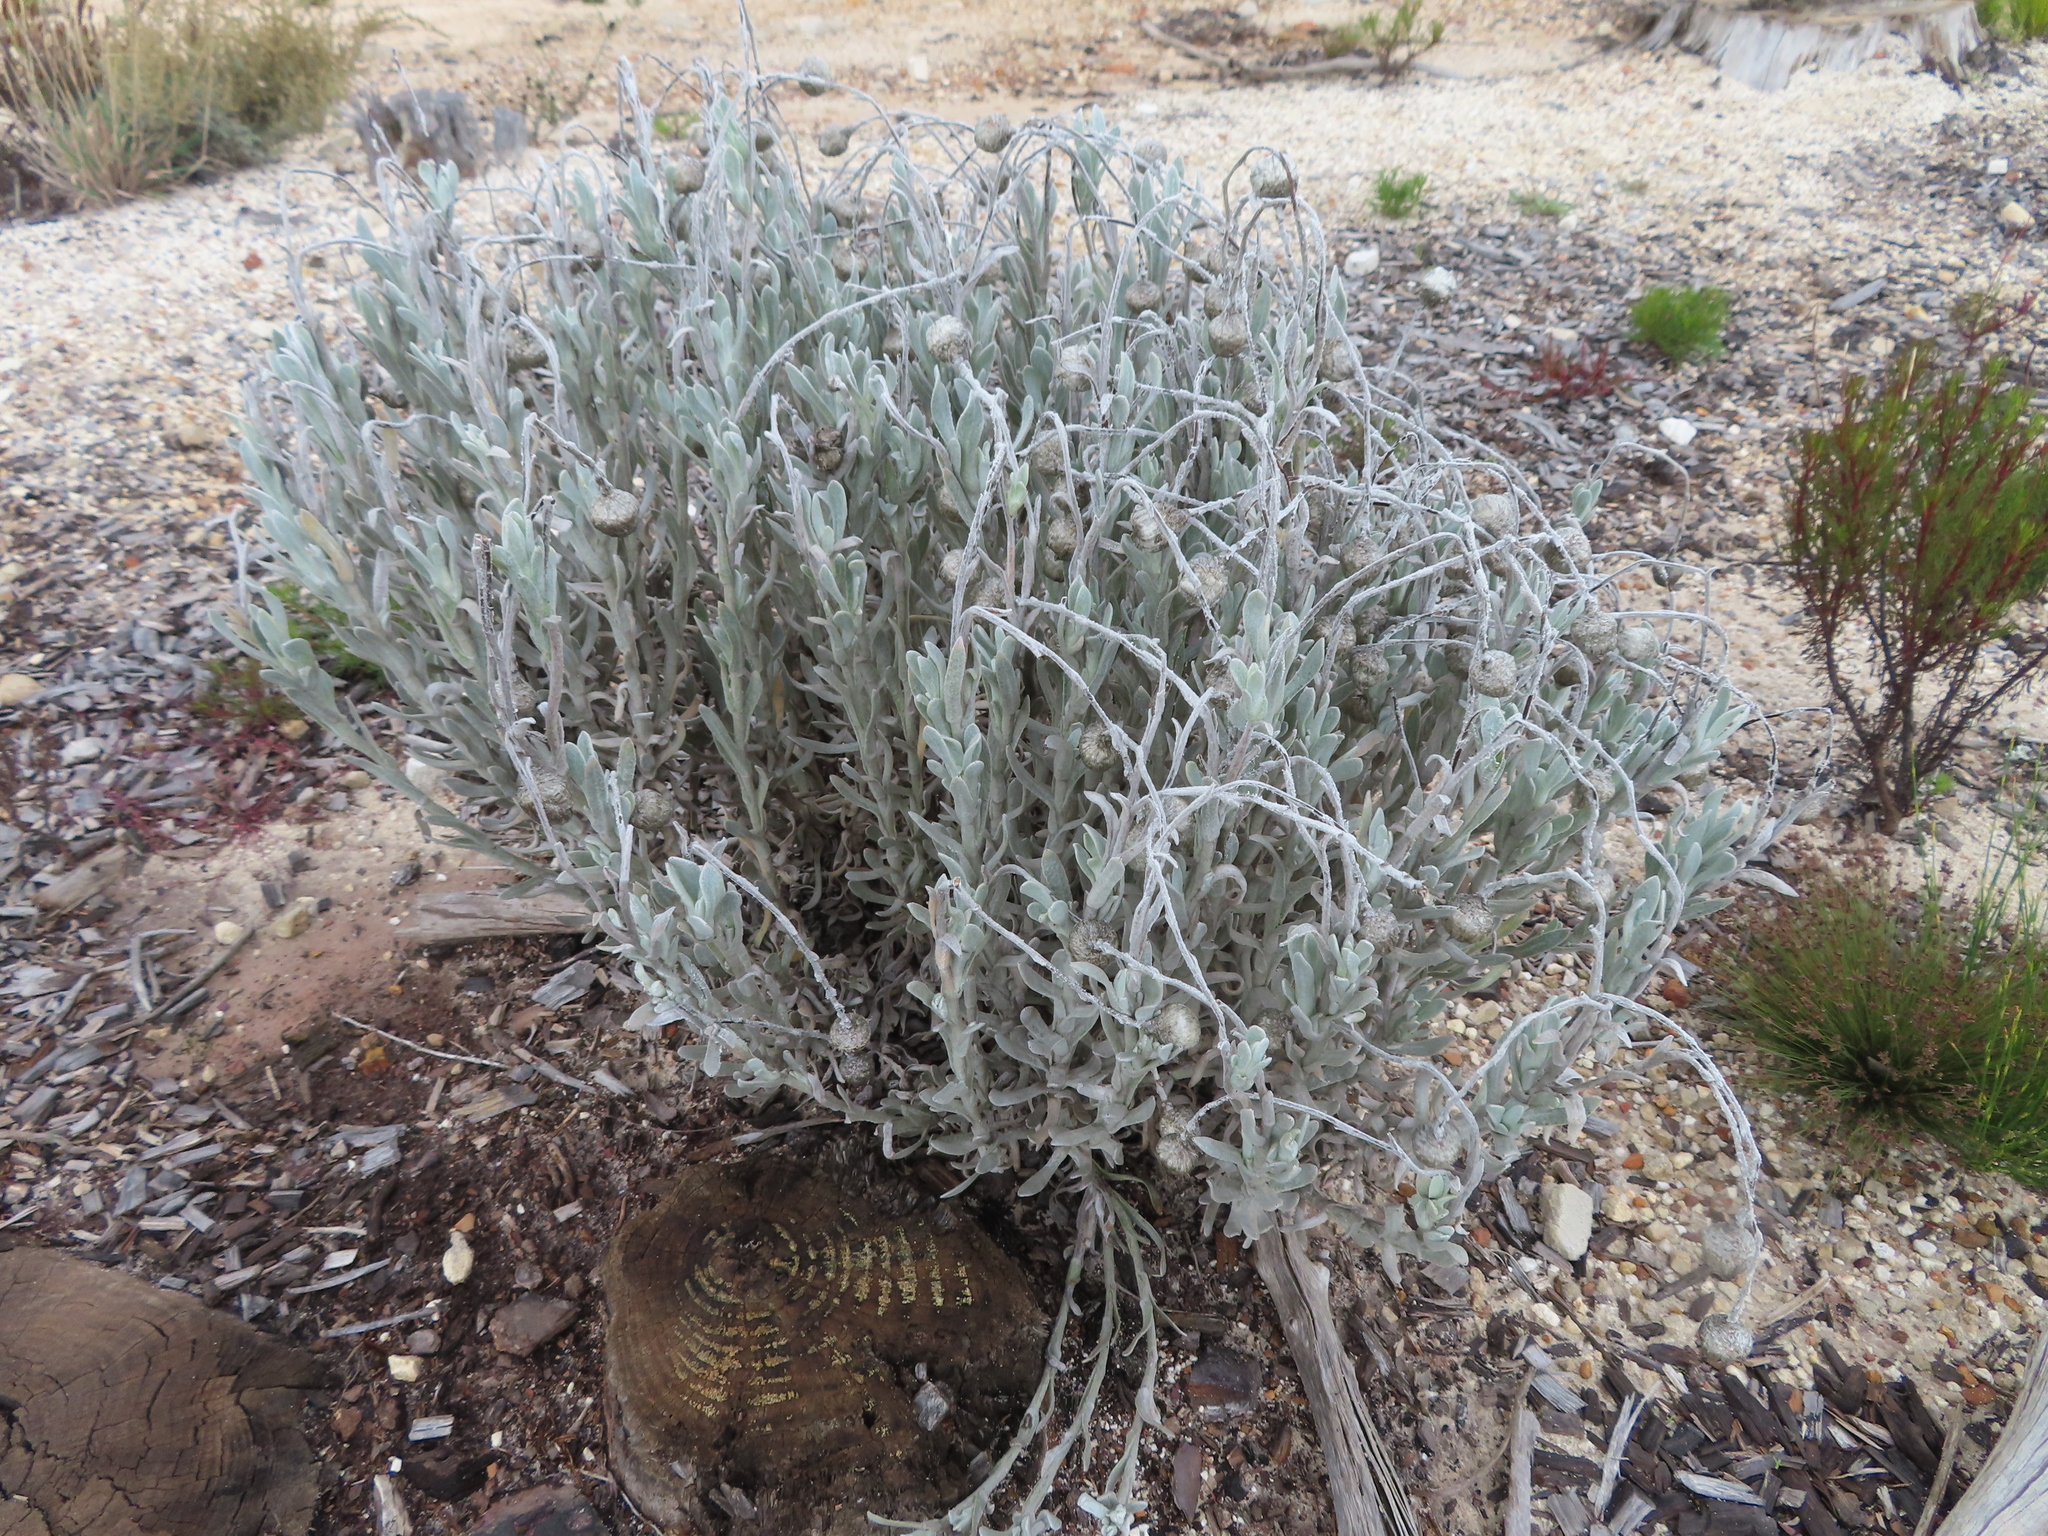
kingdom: Plantae
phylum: Tracheophyta
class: Magnoliopsida
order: Asterales
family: Asteraceae
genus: Syncarpha
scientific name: Syncarpha vestita
